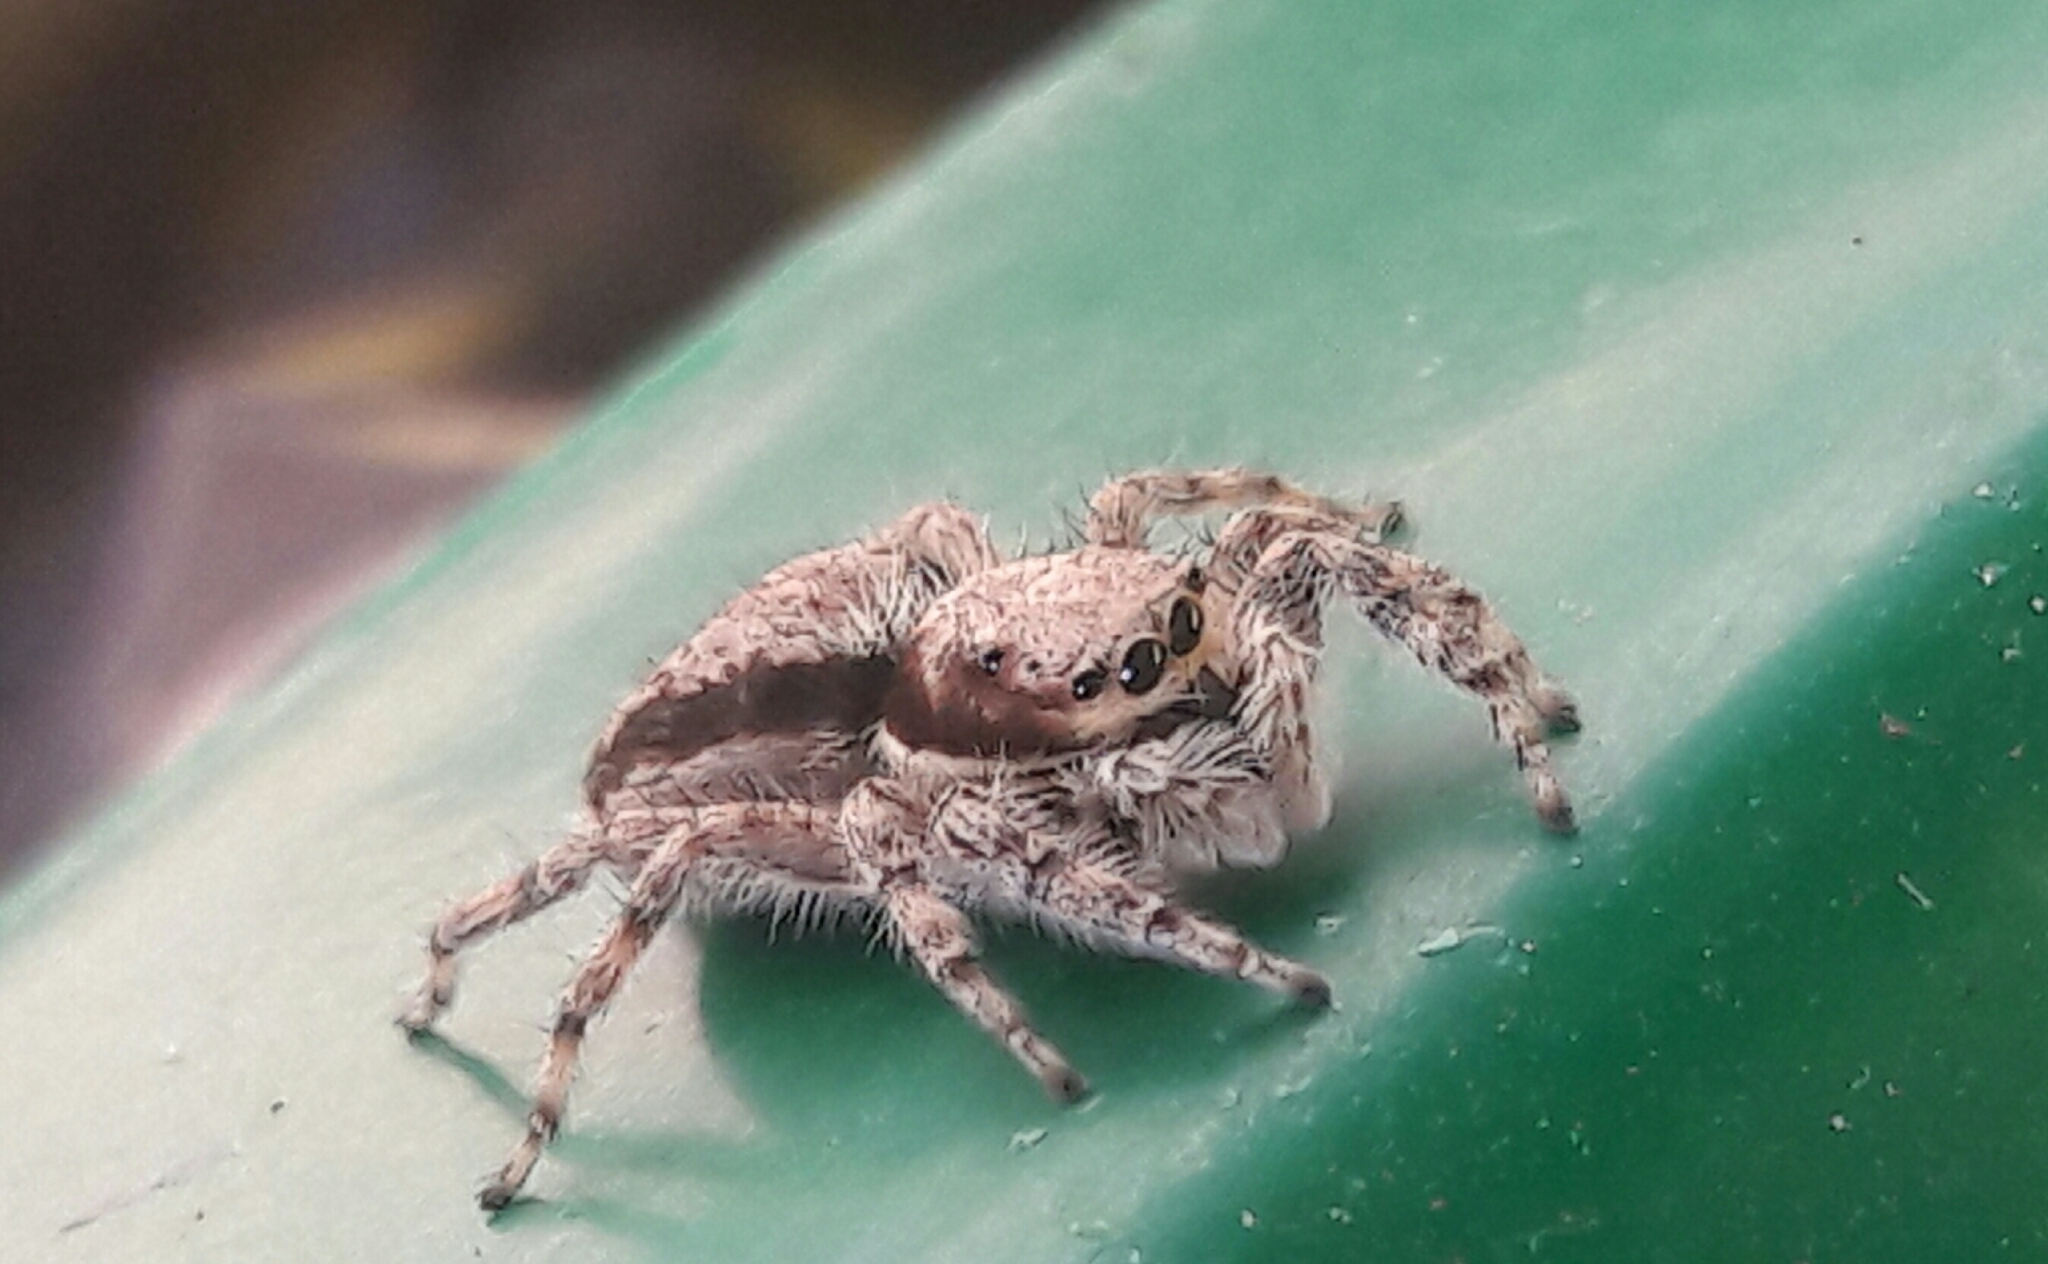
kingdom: Animalia
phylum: Arthropoda
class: Arachnida
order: Araneae
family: Salticidae
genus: Menemerus
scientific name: Menemerus bivittatus
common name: Gray wall jumper
